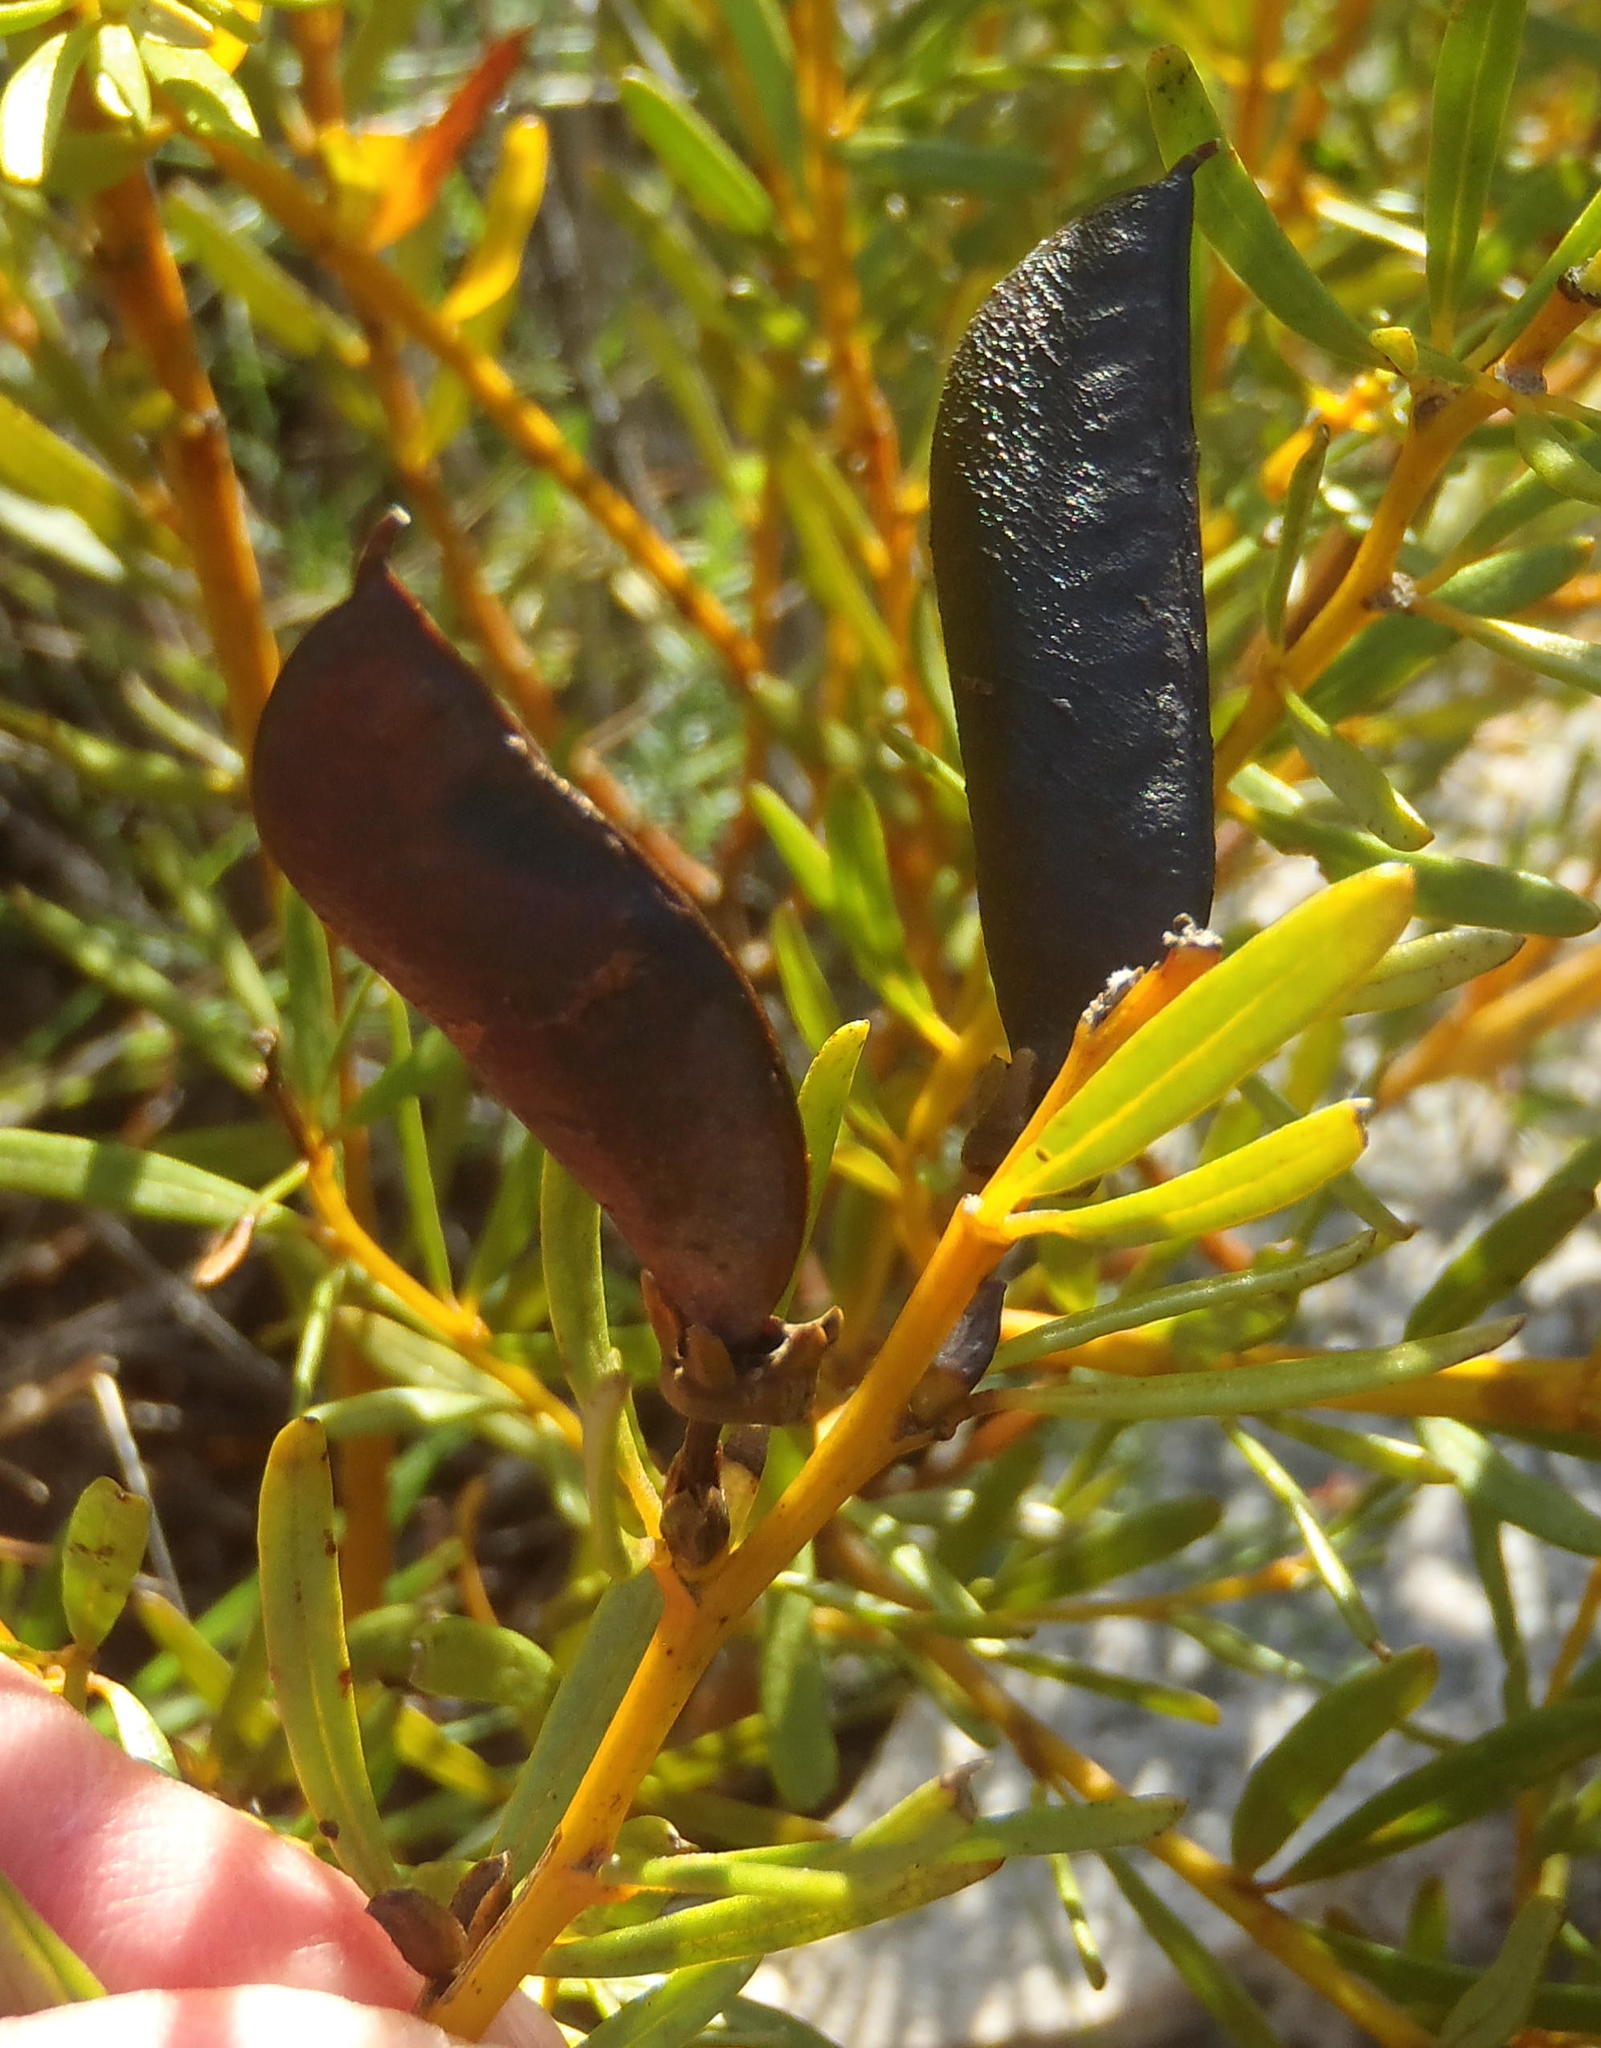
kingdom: Plantae
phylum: Tracheophyta
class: Magnoliopsida
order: Fabales
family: Fabaceae
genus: Cyclopia
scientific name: Cyclopia intermedia
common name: Mountain tea
